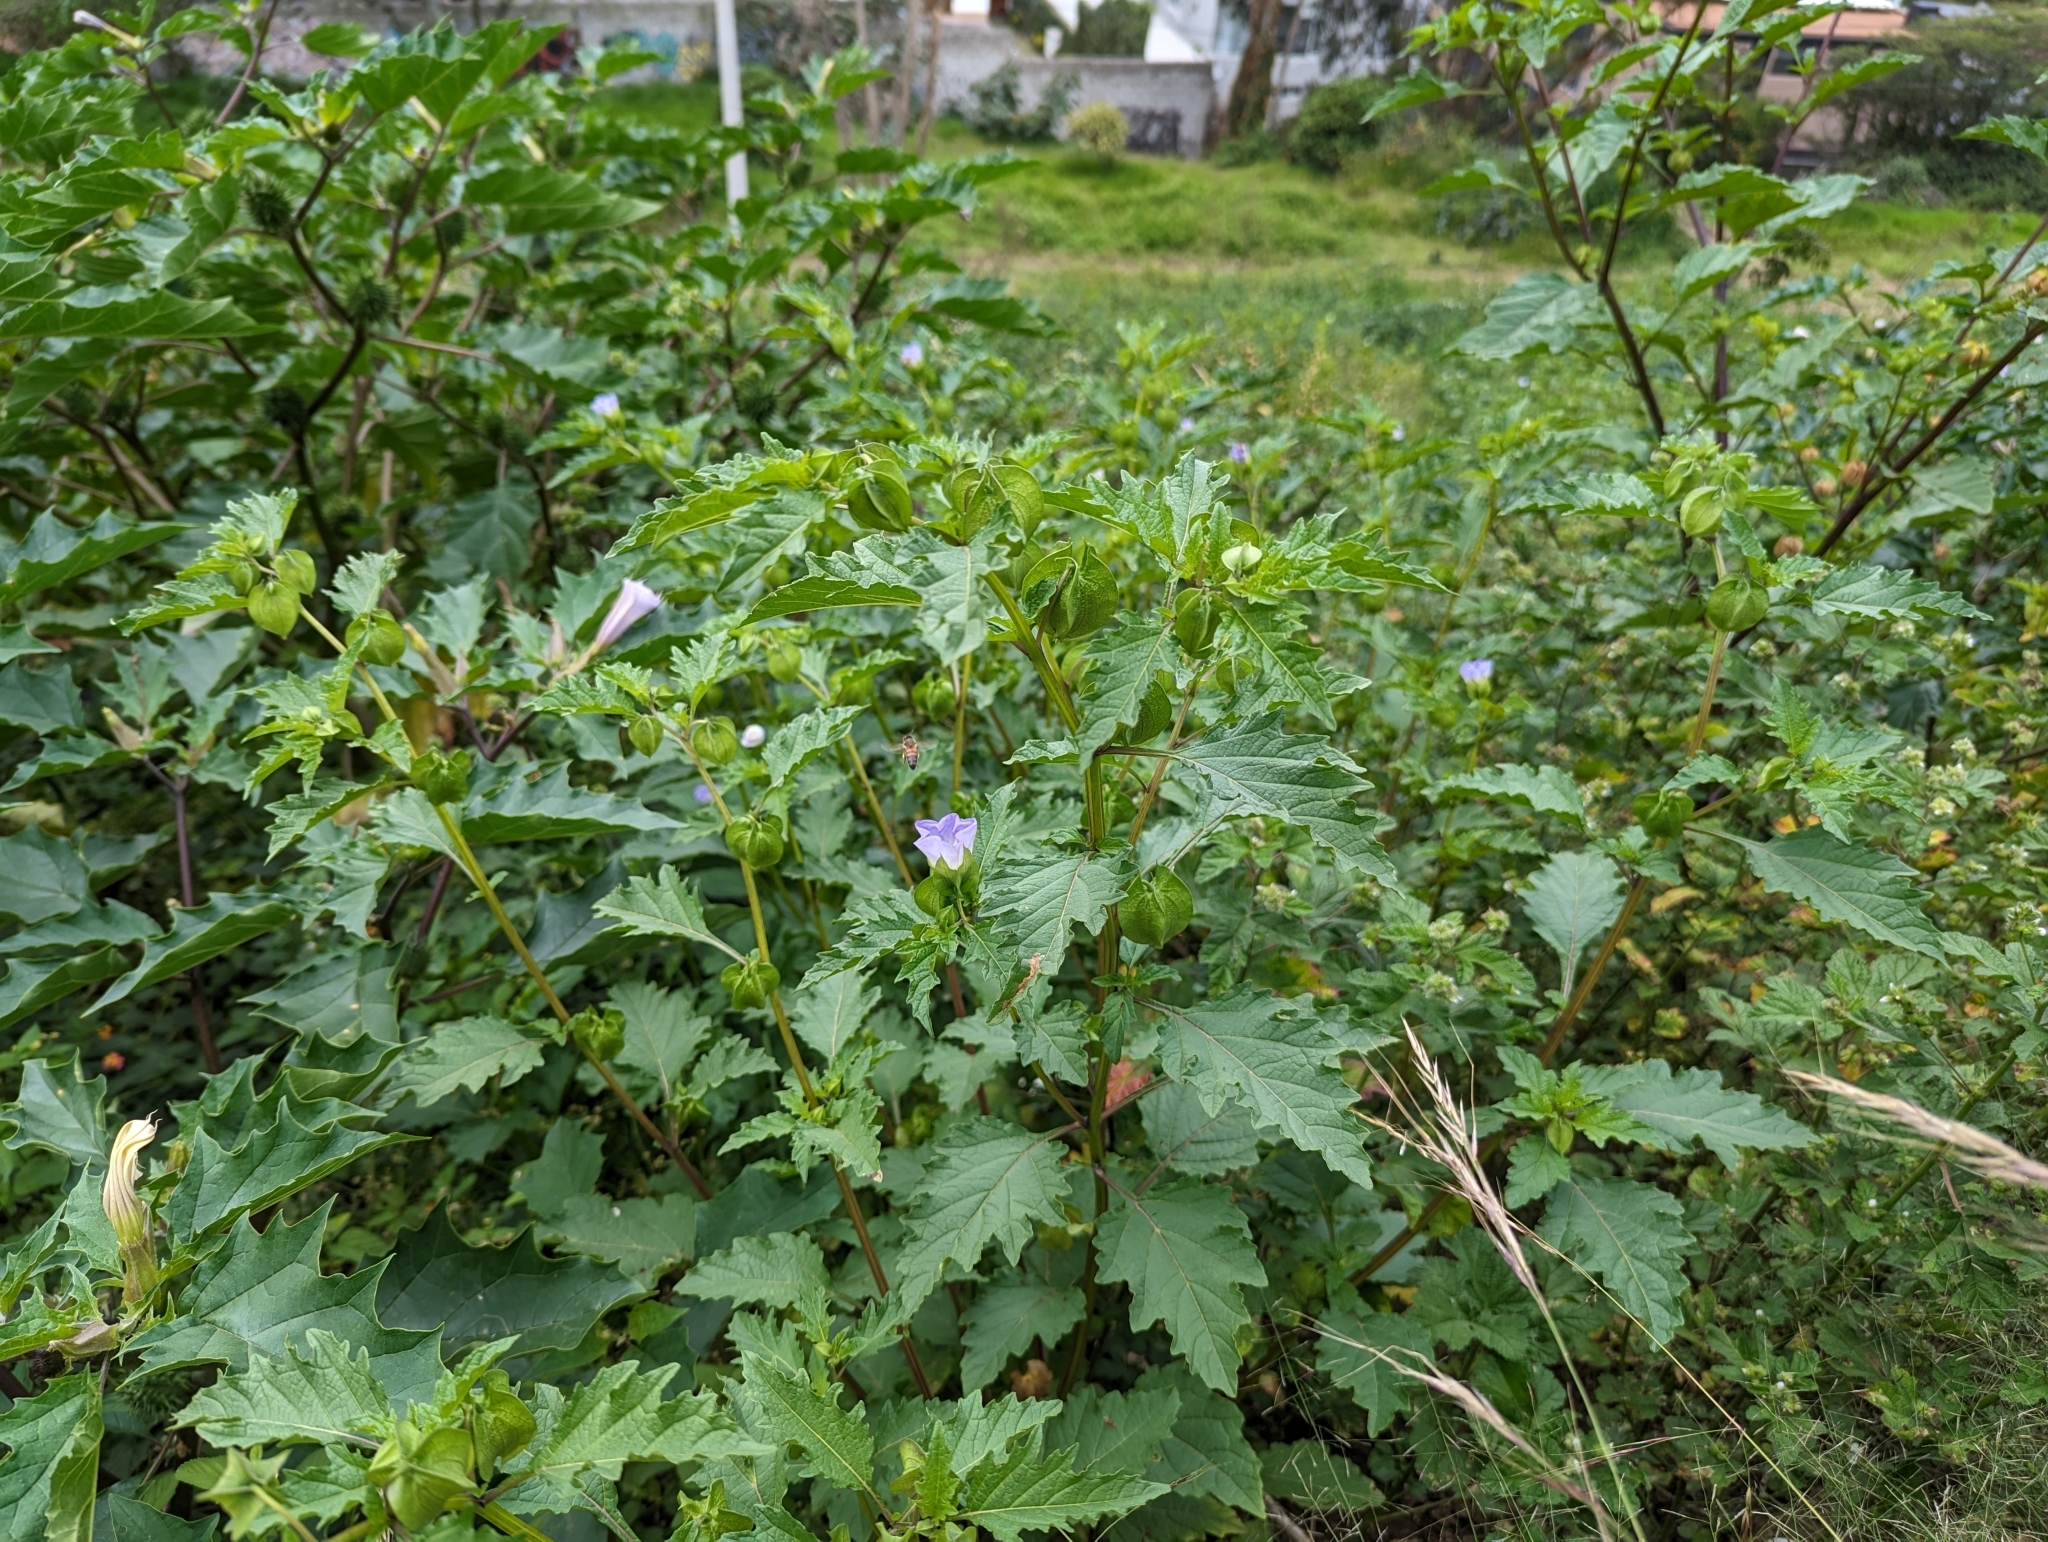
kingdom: Plantae
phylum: Tracheophyta
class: Magnoliopsida
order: Solanales
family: Solanaceae
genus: Nicandra
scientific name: Nicandra physalodes
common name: Apple-of-peru
